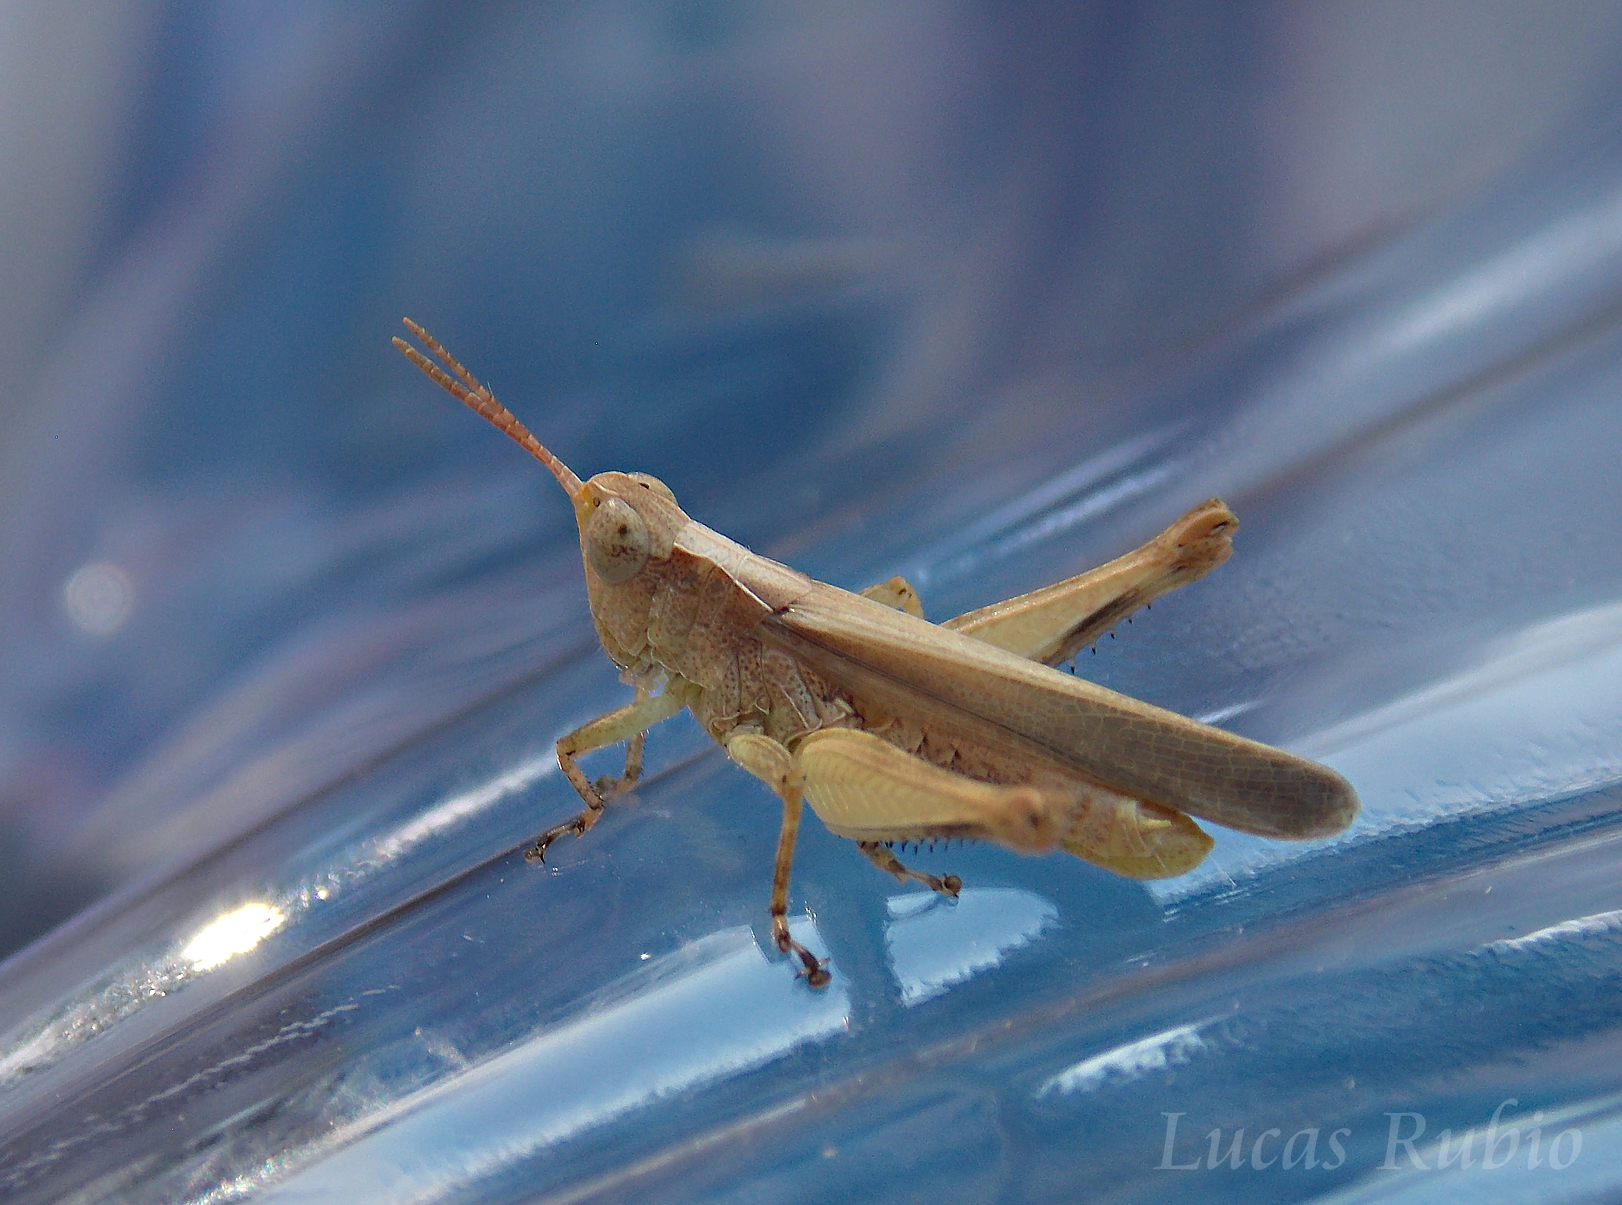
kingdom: Animalia
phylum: Arthropoda
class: Insecta
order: Orthoptera
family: Acrididae
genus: Orphulella
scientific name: Orphulella punctata
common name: Slant-faced grasshopper
